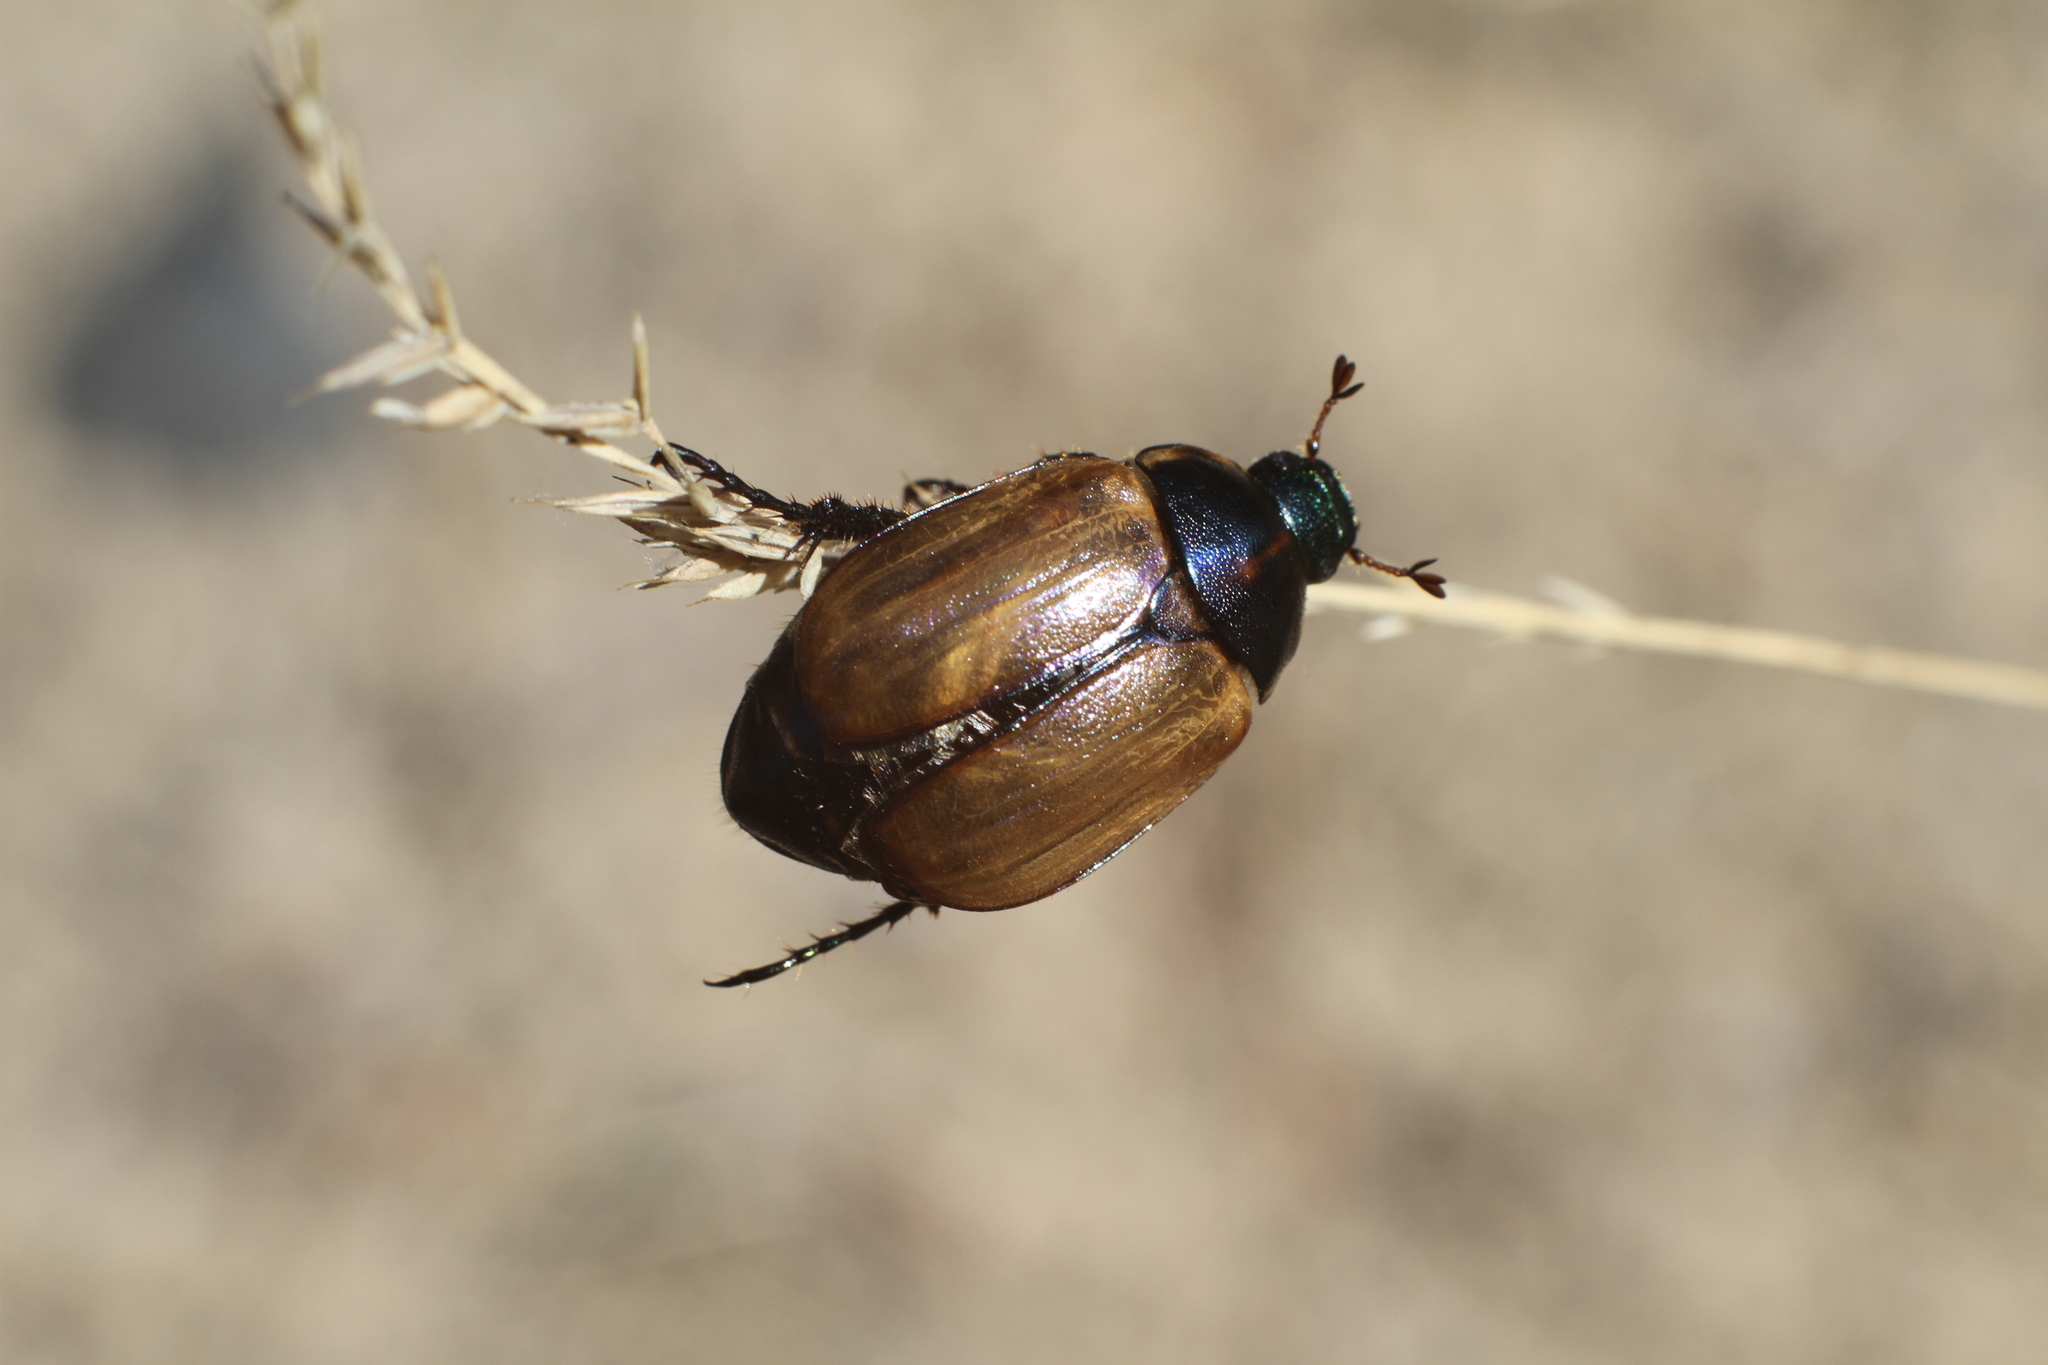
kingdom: Animalia
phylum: Arthropoda
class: Insecta
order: Coleoptera
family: Scarabaeidae
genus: Anomala
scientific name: Anomala dubia
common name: Dune chafer
